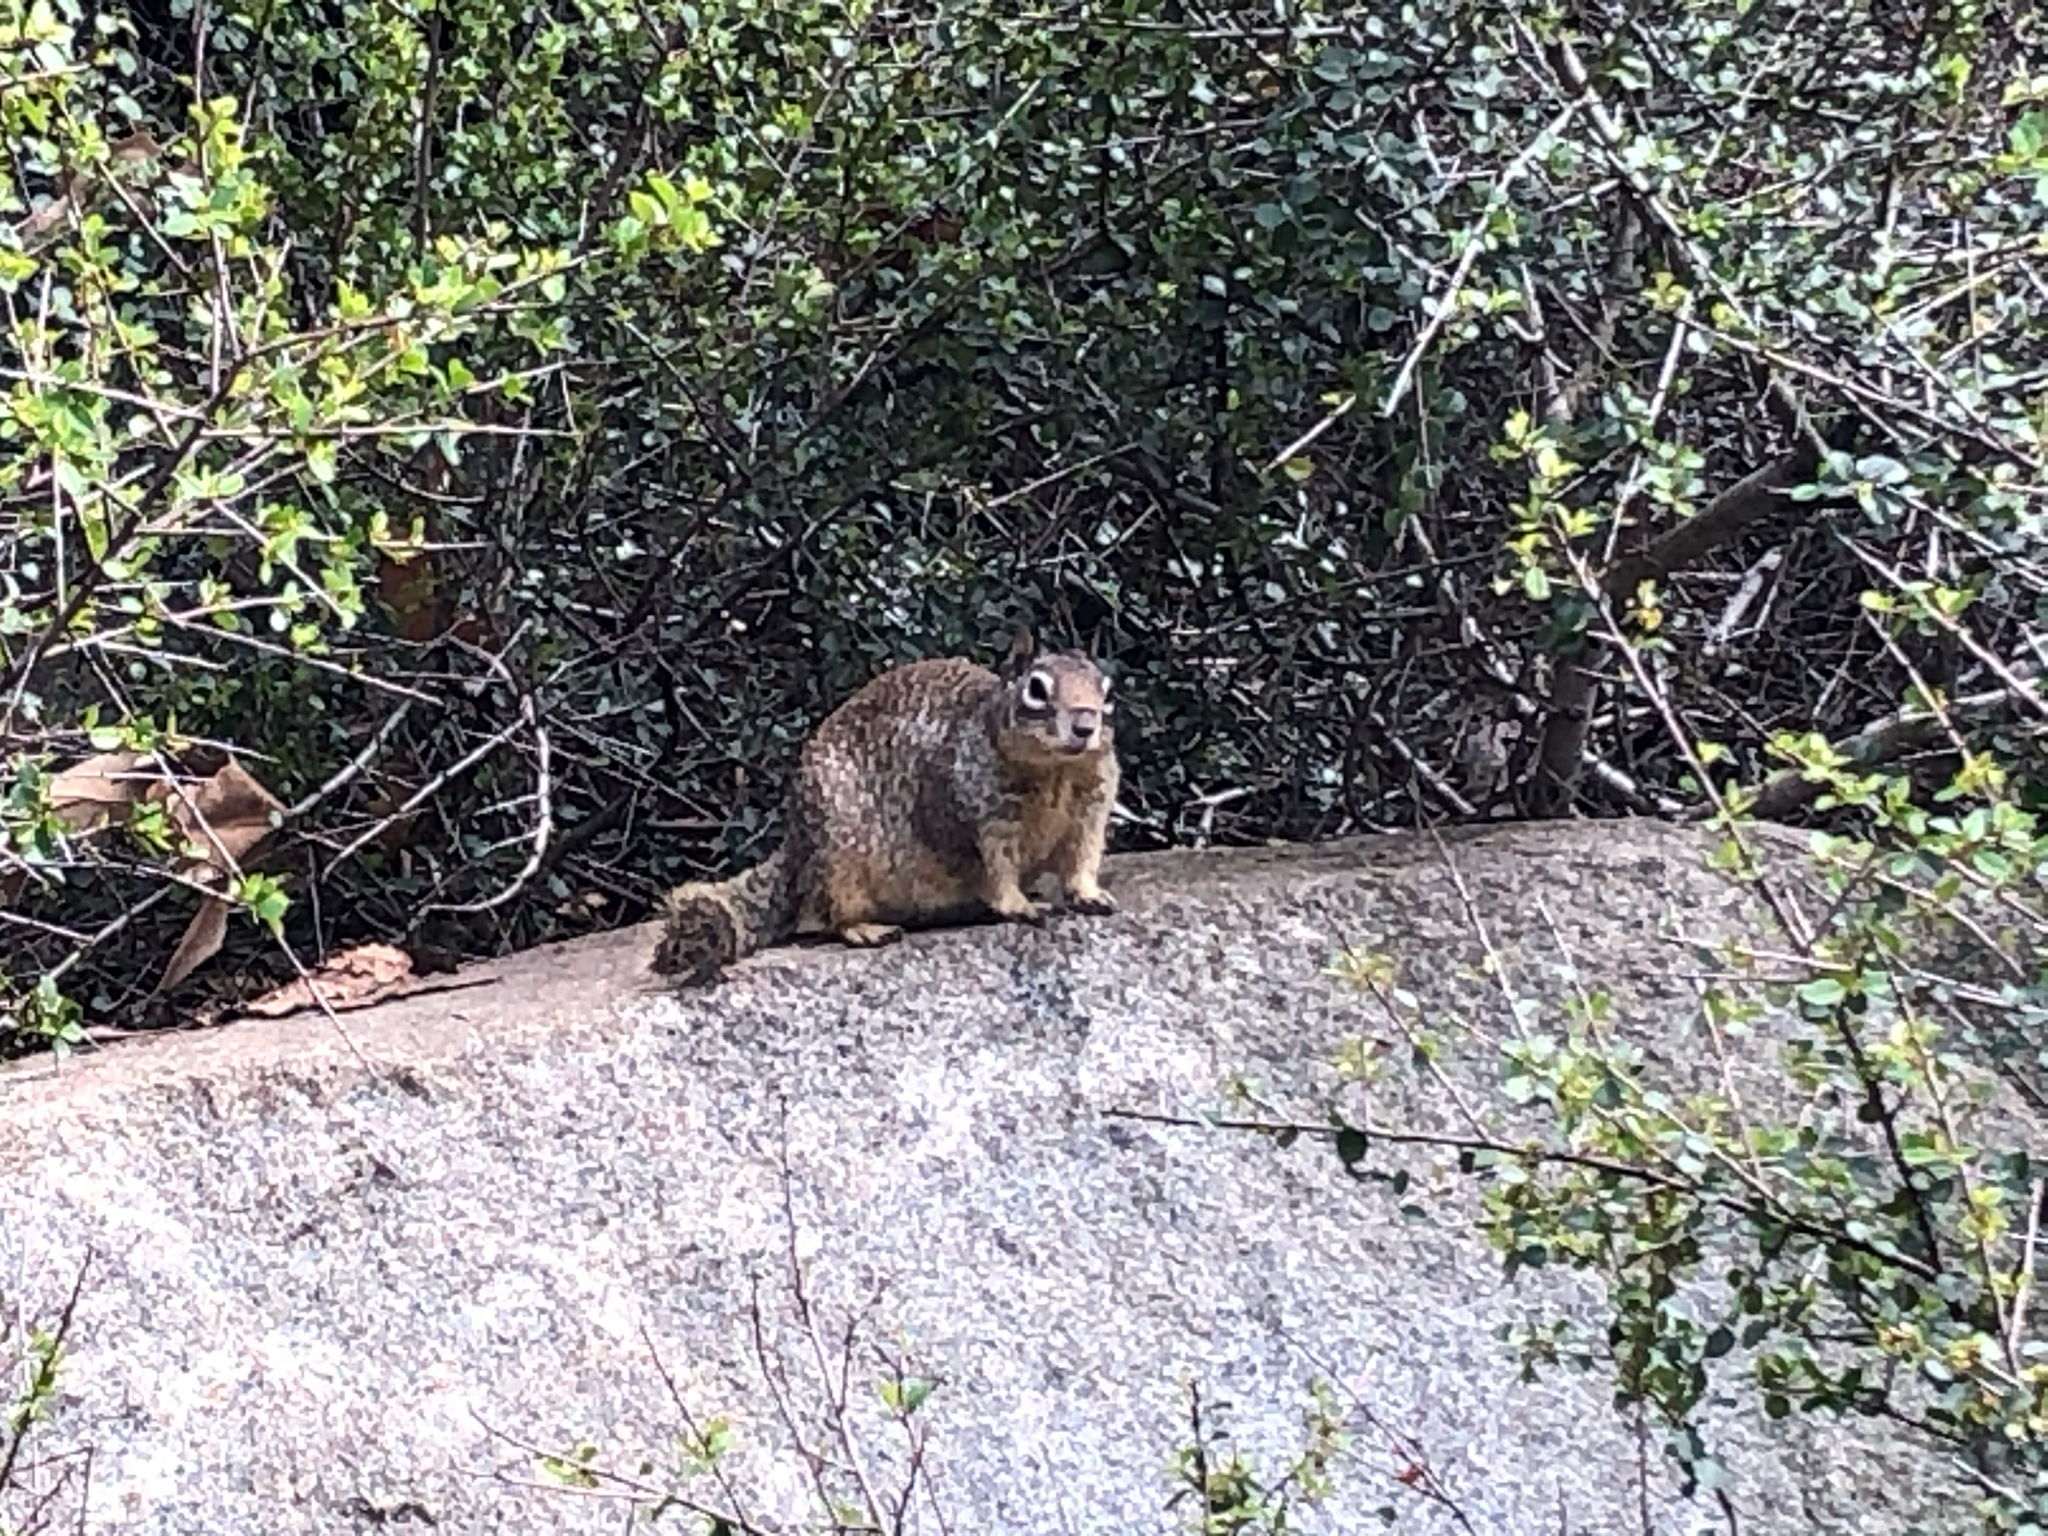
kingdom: Animalia
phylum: Chordata
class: Mammalia
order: Rodentia
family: Sciuridae
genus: Otospermophilus
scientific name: Otospermophilus beecheyi
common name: California ground squirrel
